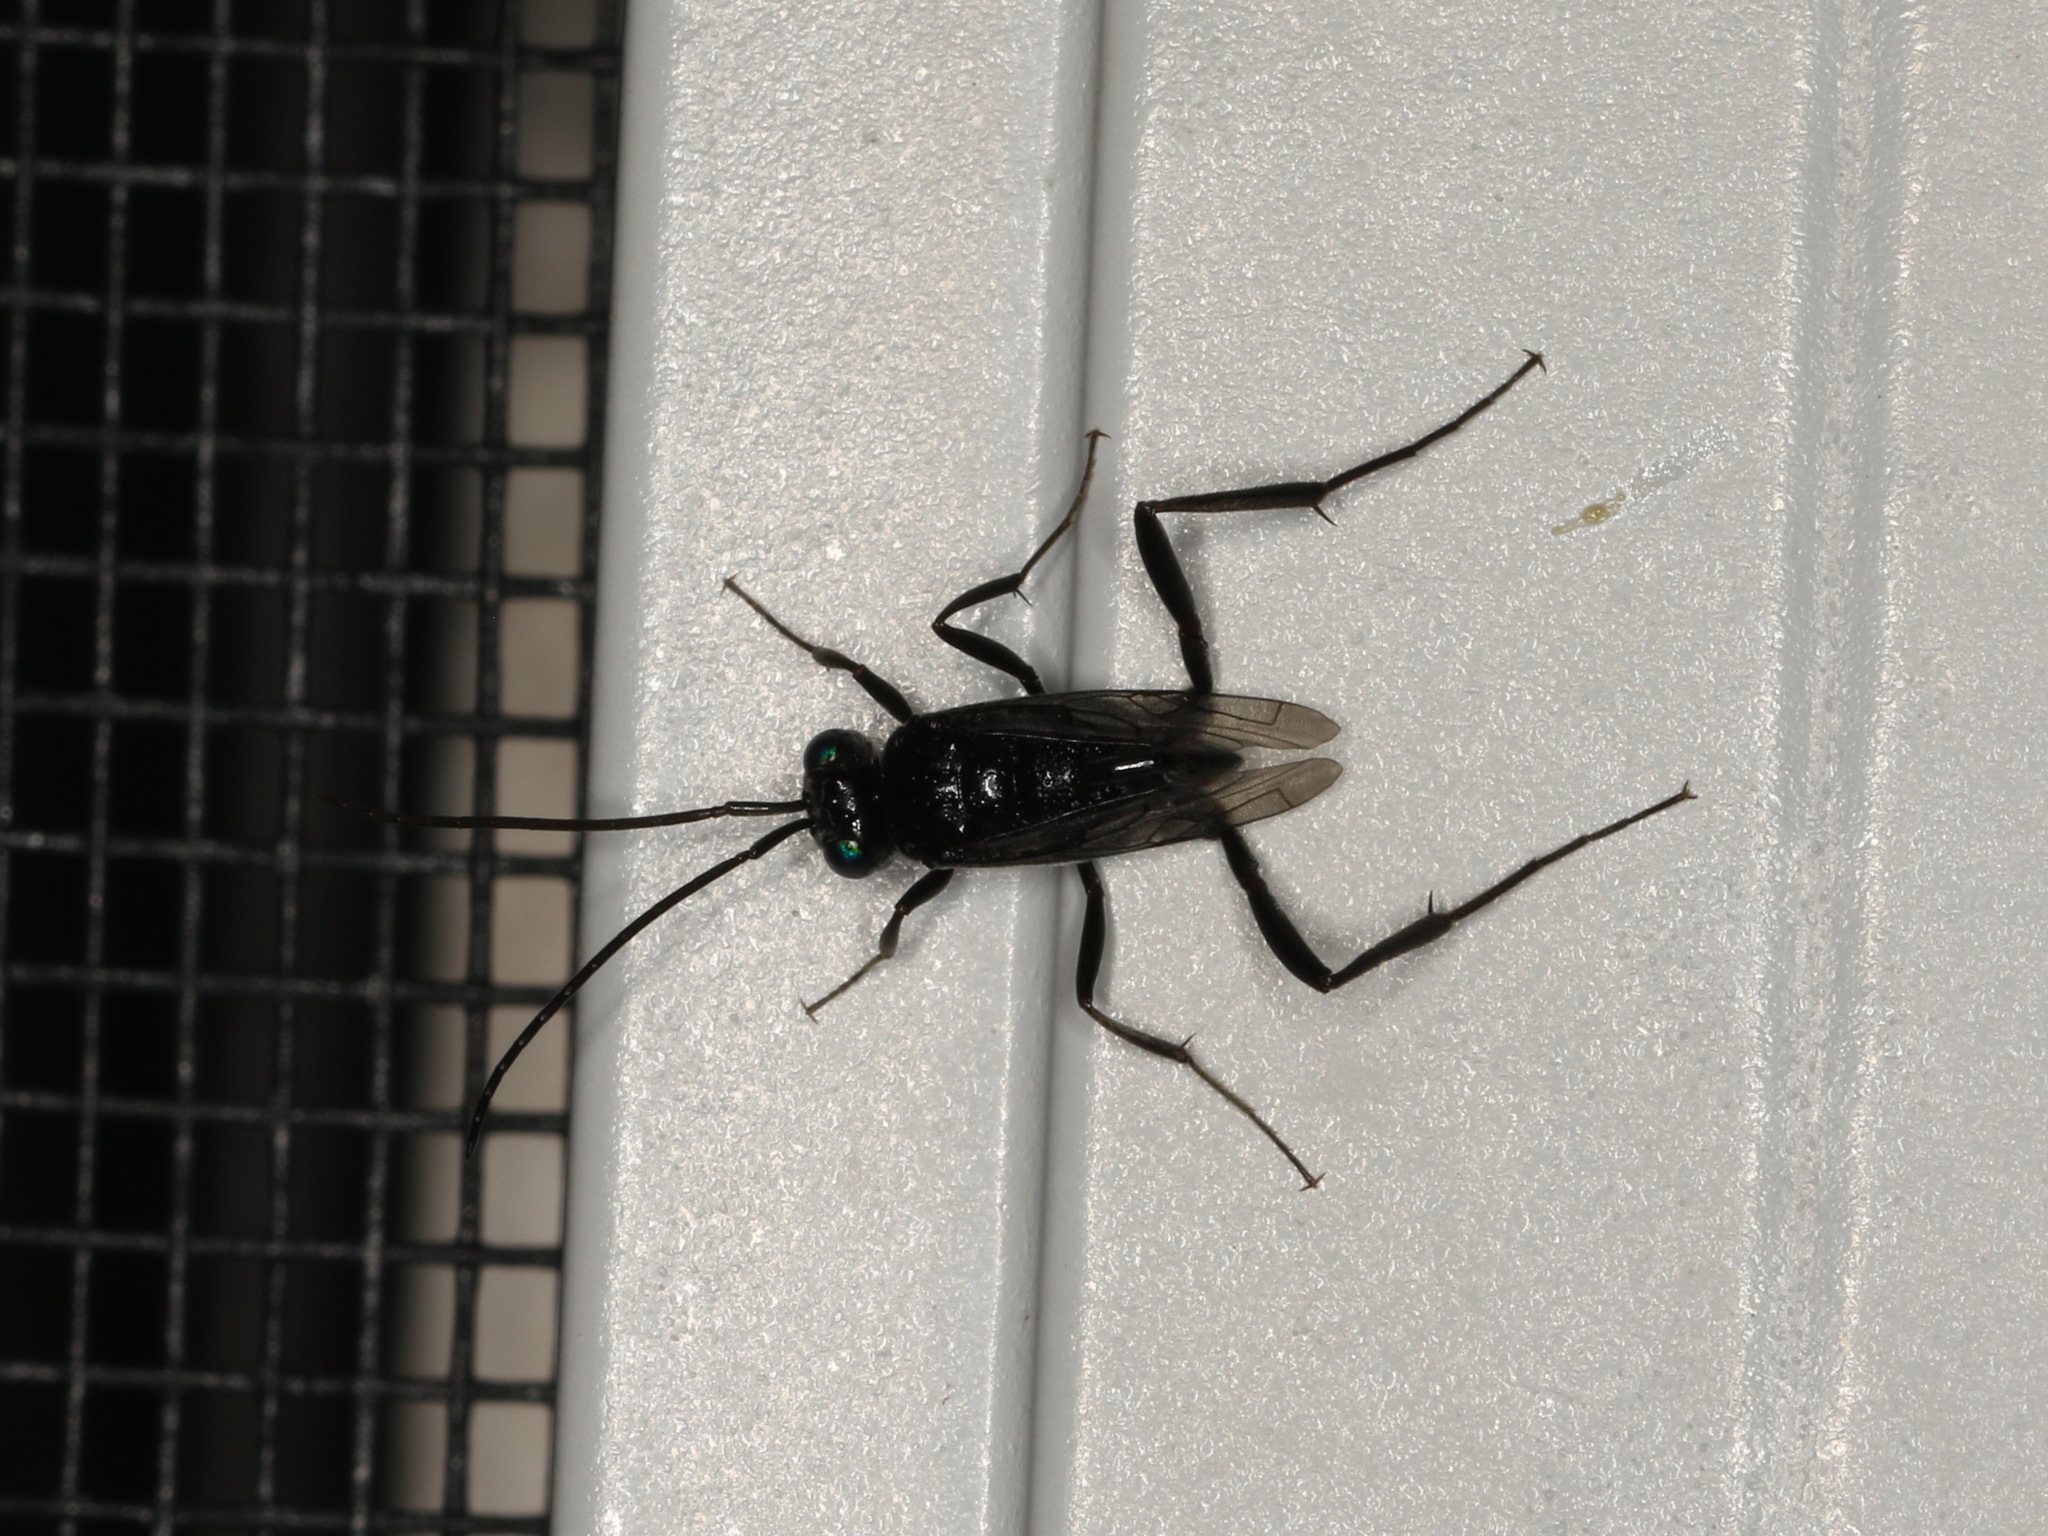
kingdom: Animalia
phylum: Arthropoda
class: Insecta
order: Hymenoptera
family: Evaniidae
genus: Evania
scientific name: Evania appendigaster
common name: Ensign wasp
